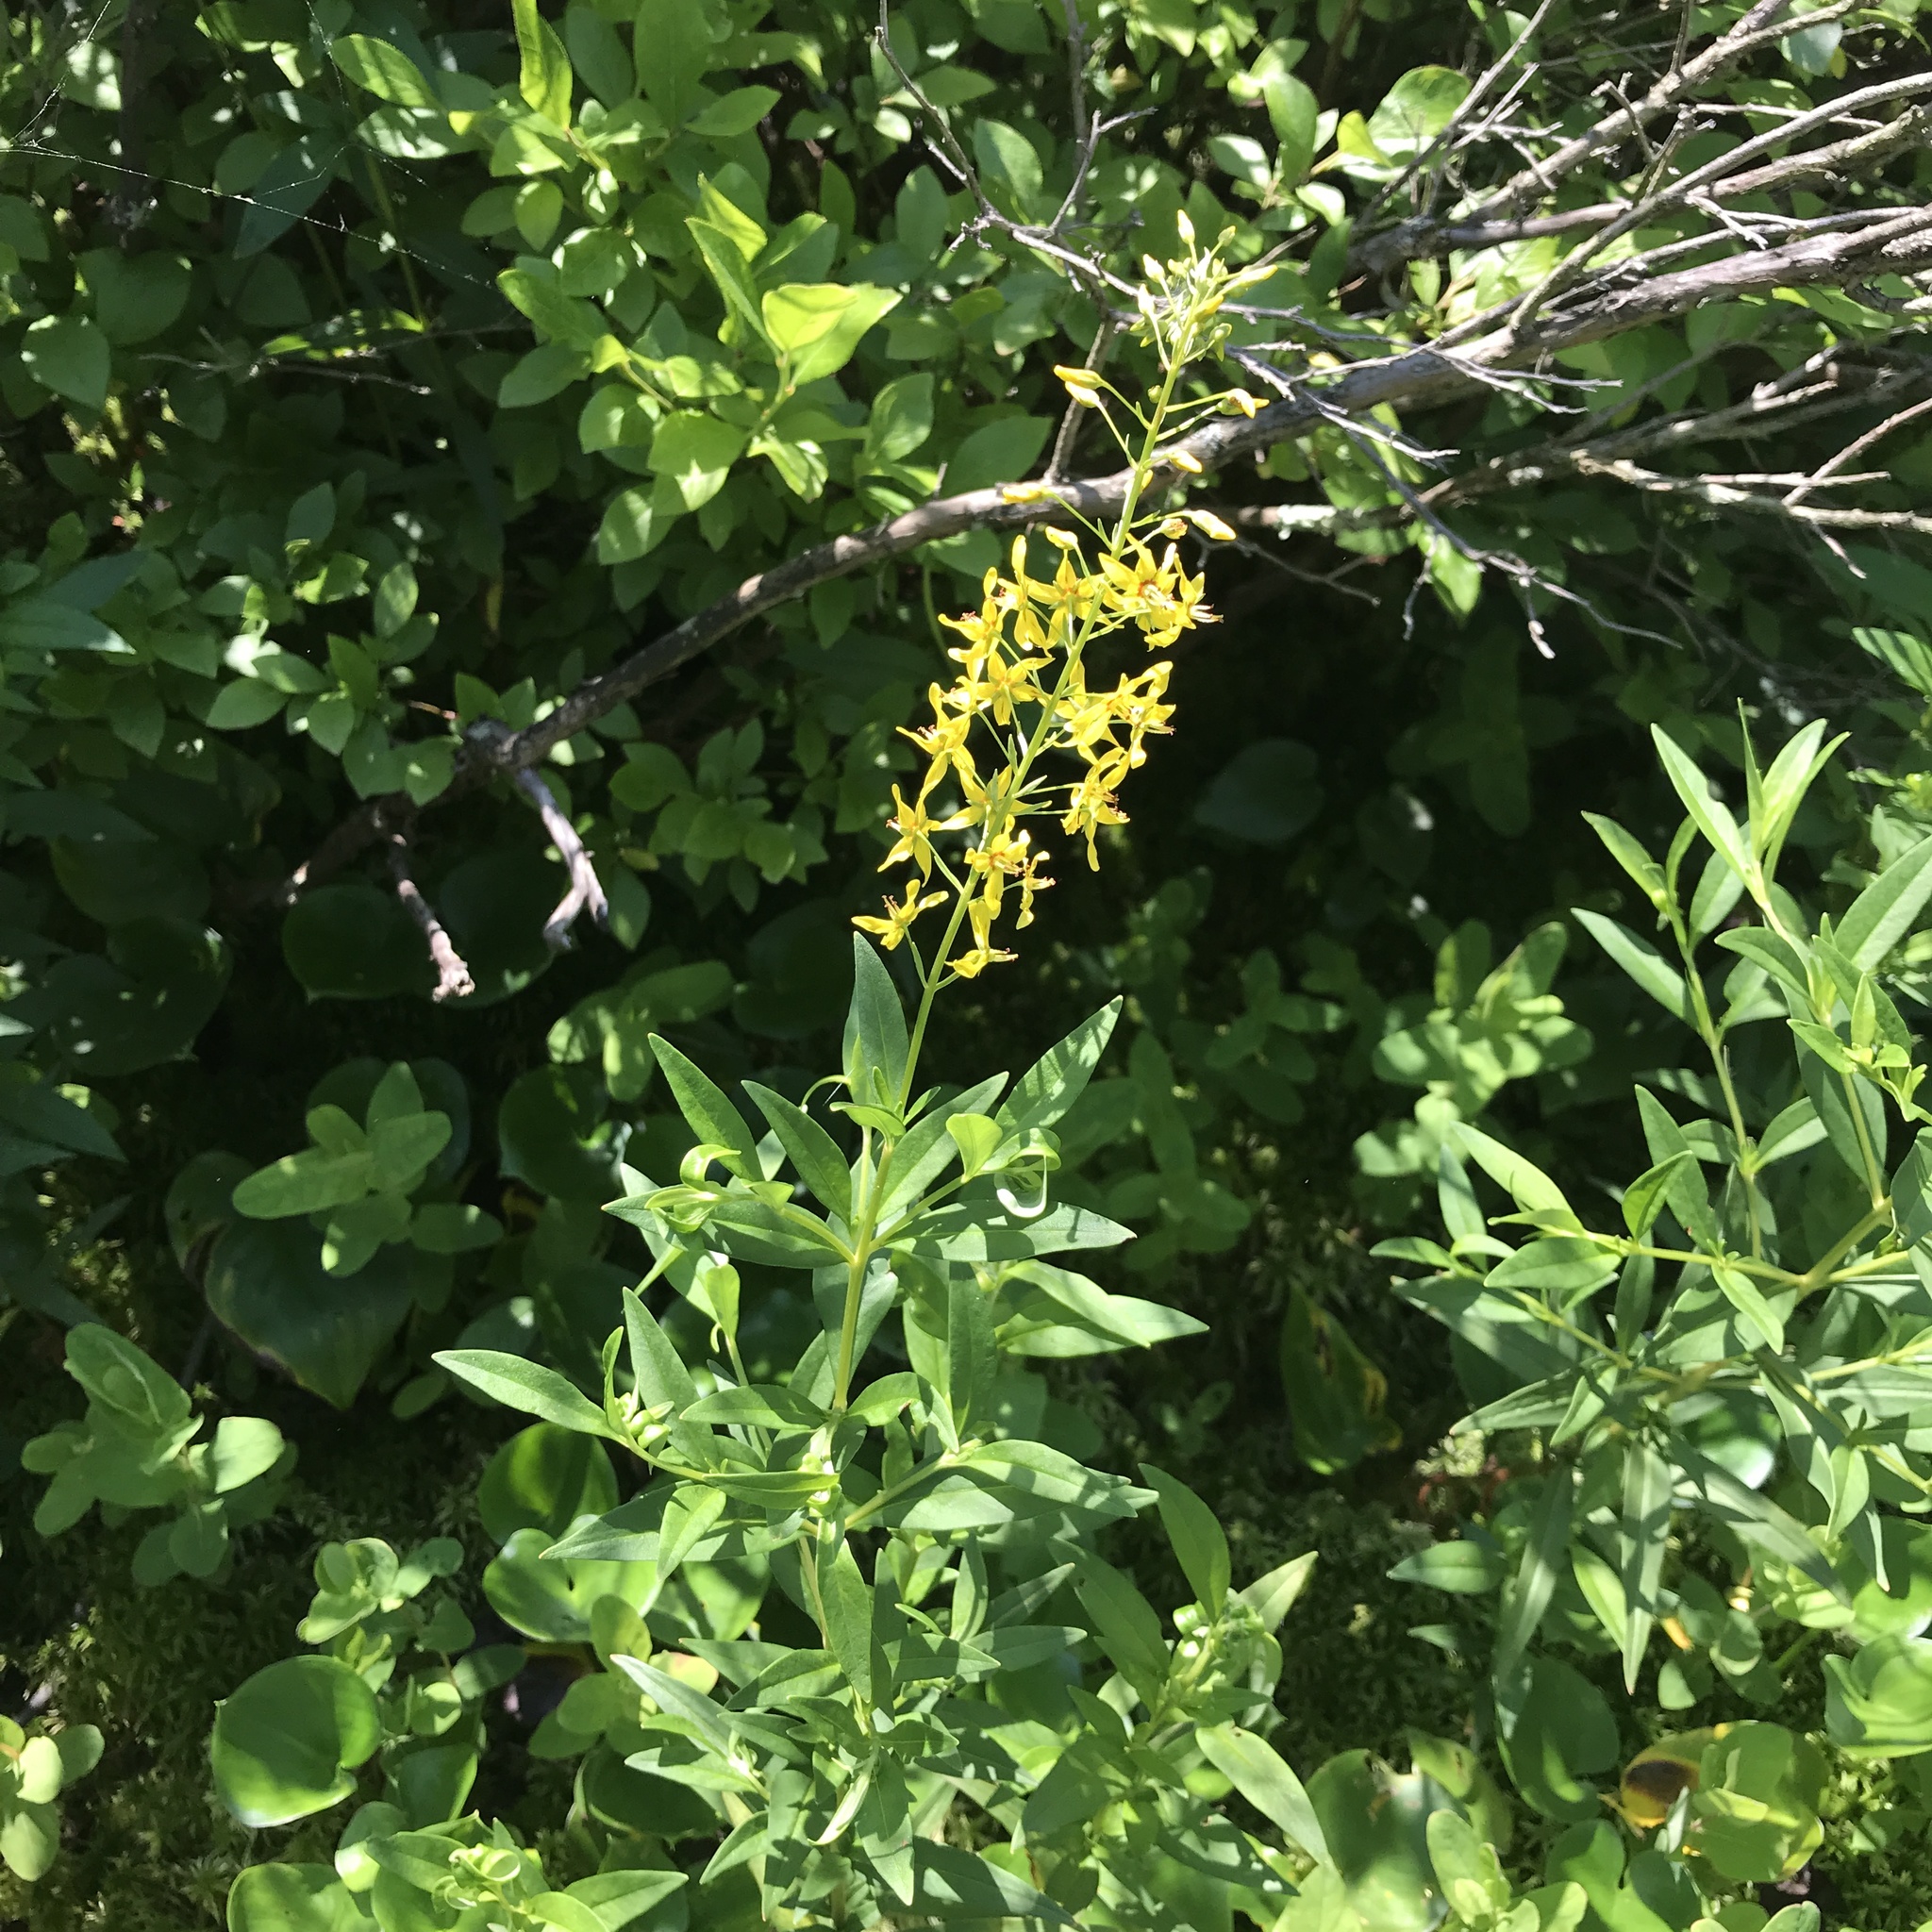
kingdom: Plantae
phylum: Tracheophyta
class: Magnoliopsida
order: Ericales
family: Primulaceae
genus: Lysimachia
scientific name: Lysimachia terrestris
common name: Lake loosestrife
